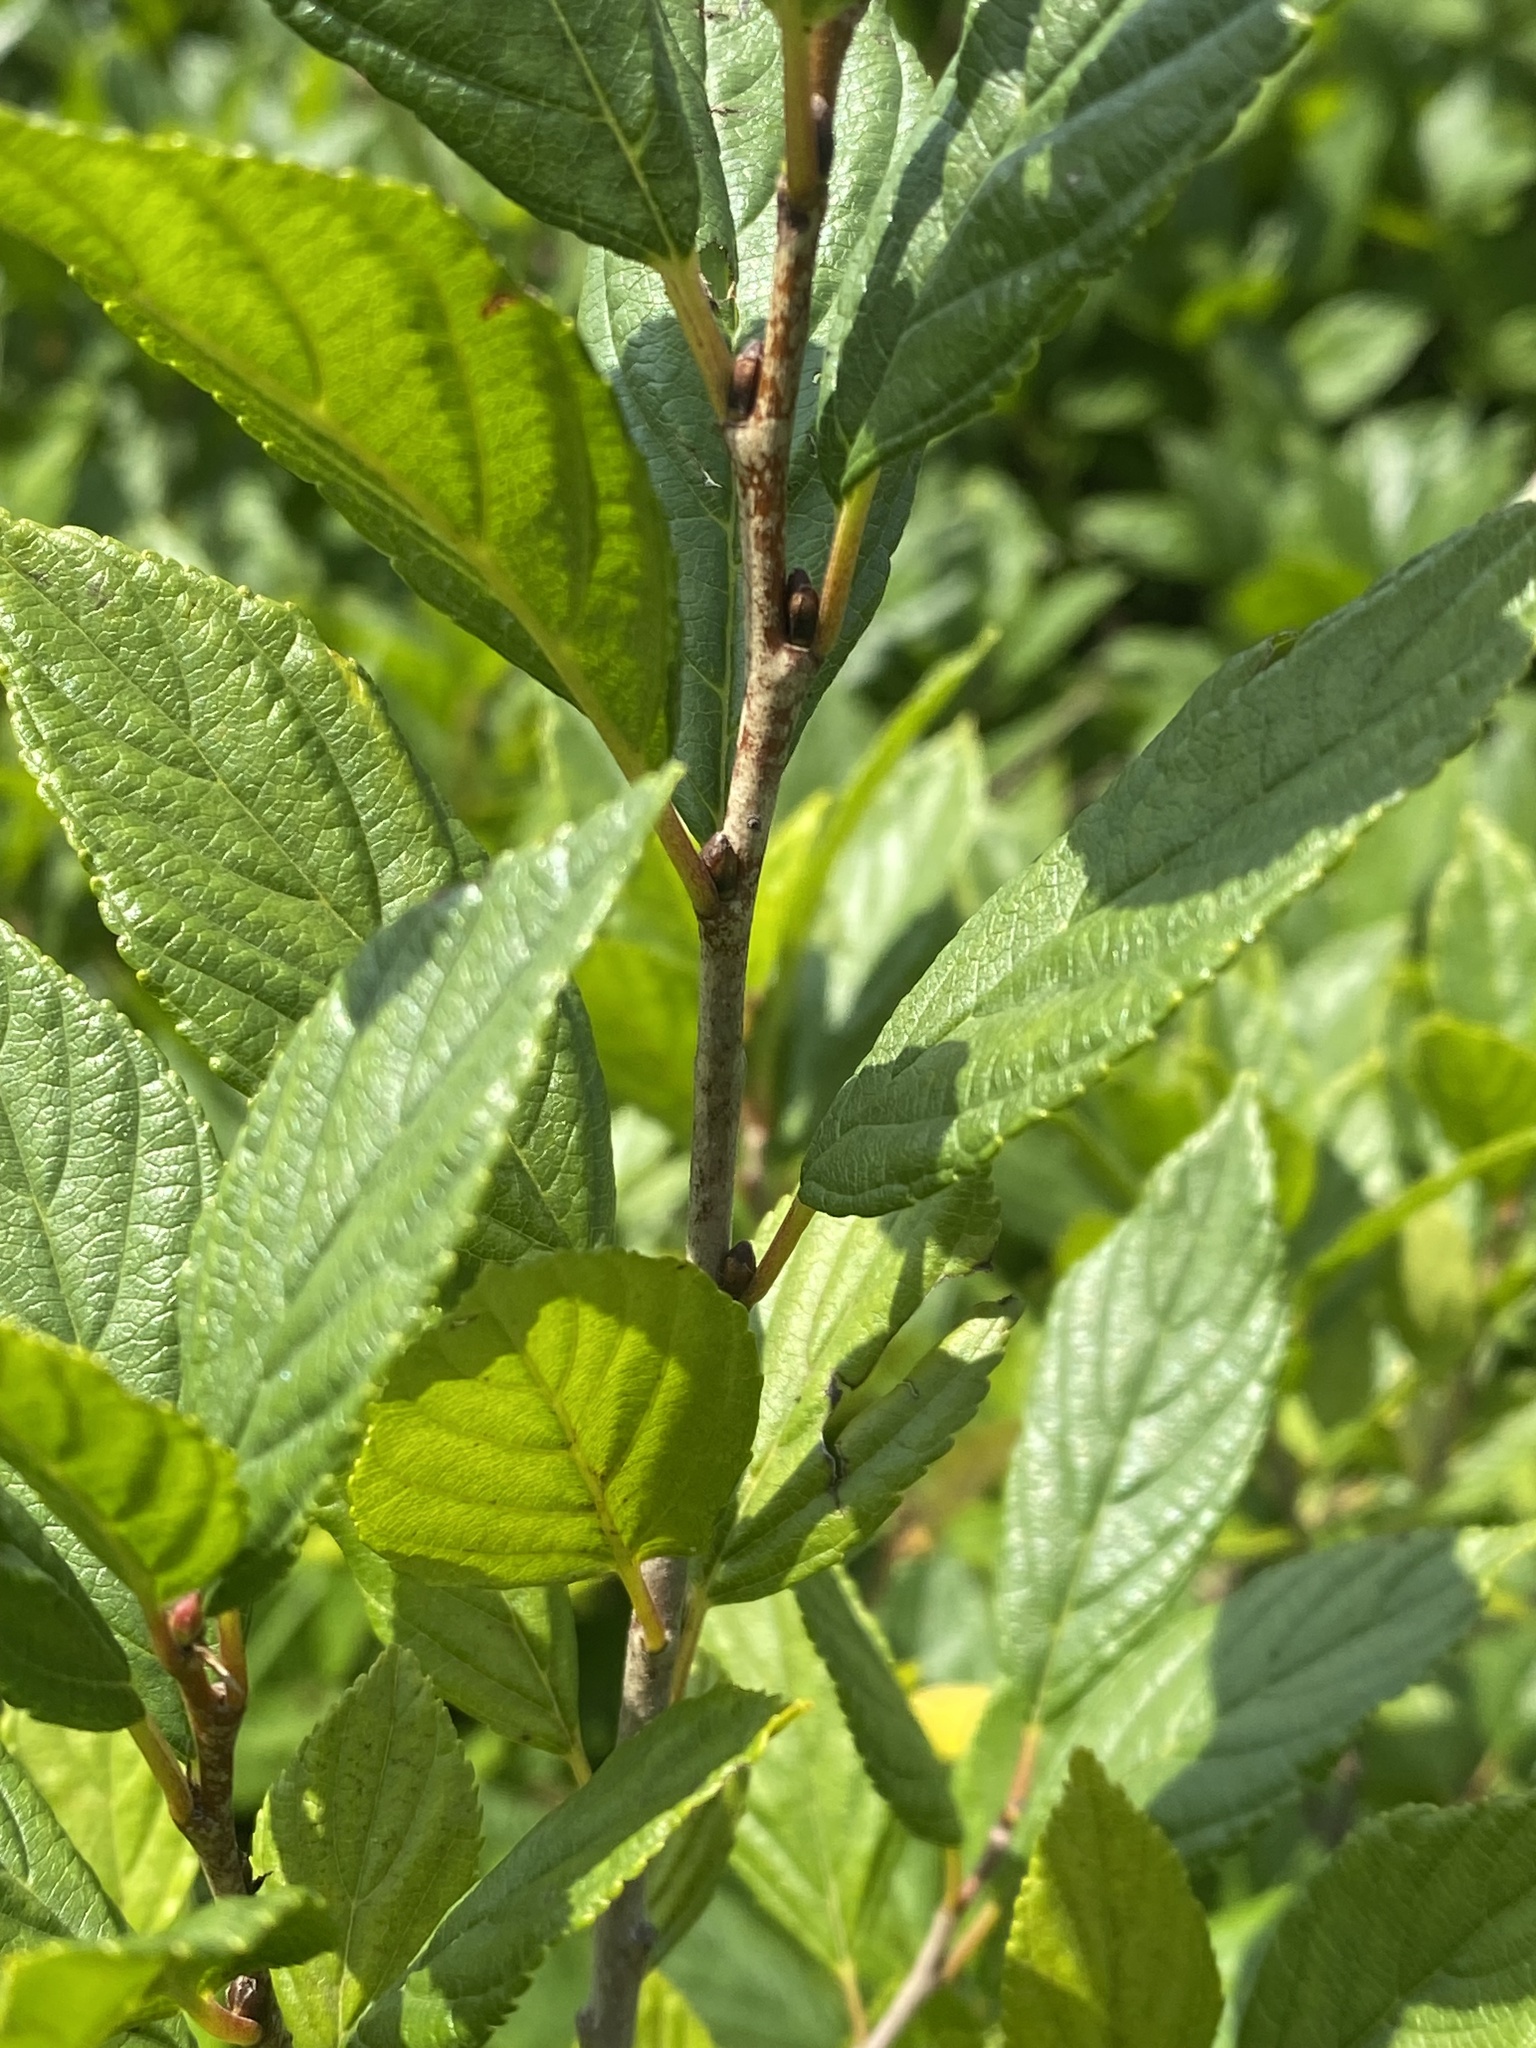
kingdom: Plantae
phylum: Tracheophyta
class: Magnoliopsida
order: Rosales
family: Rhamnaceae
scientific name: Rhamnaceae
